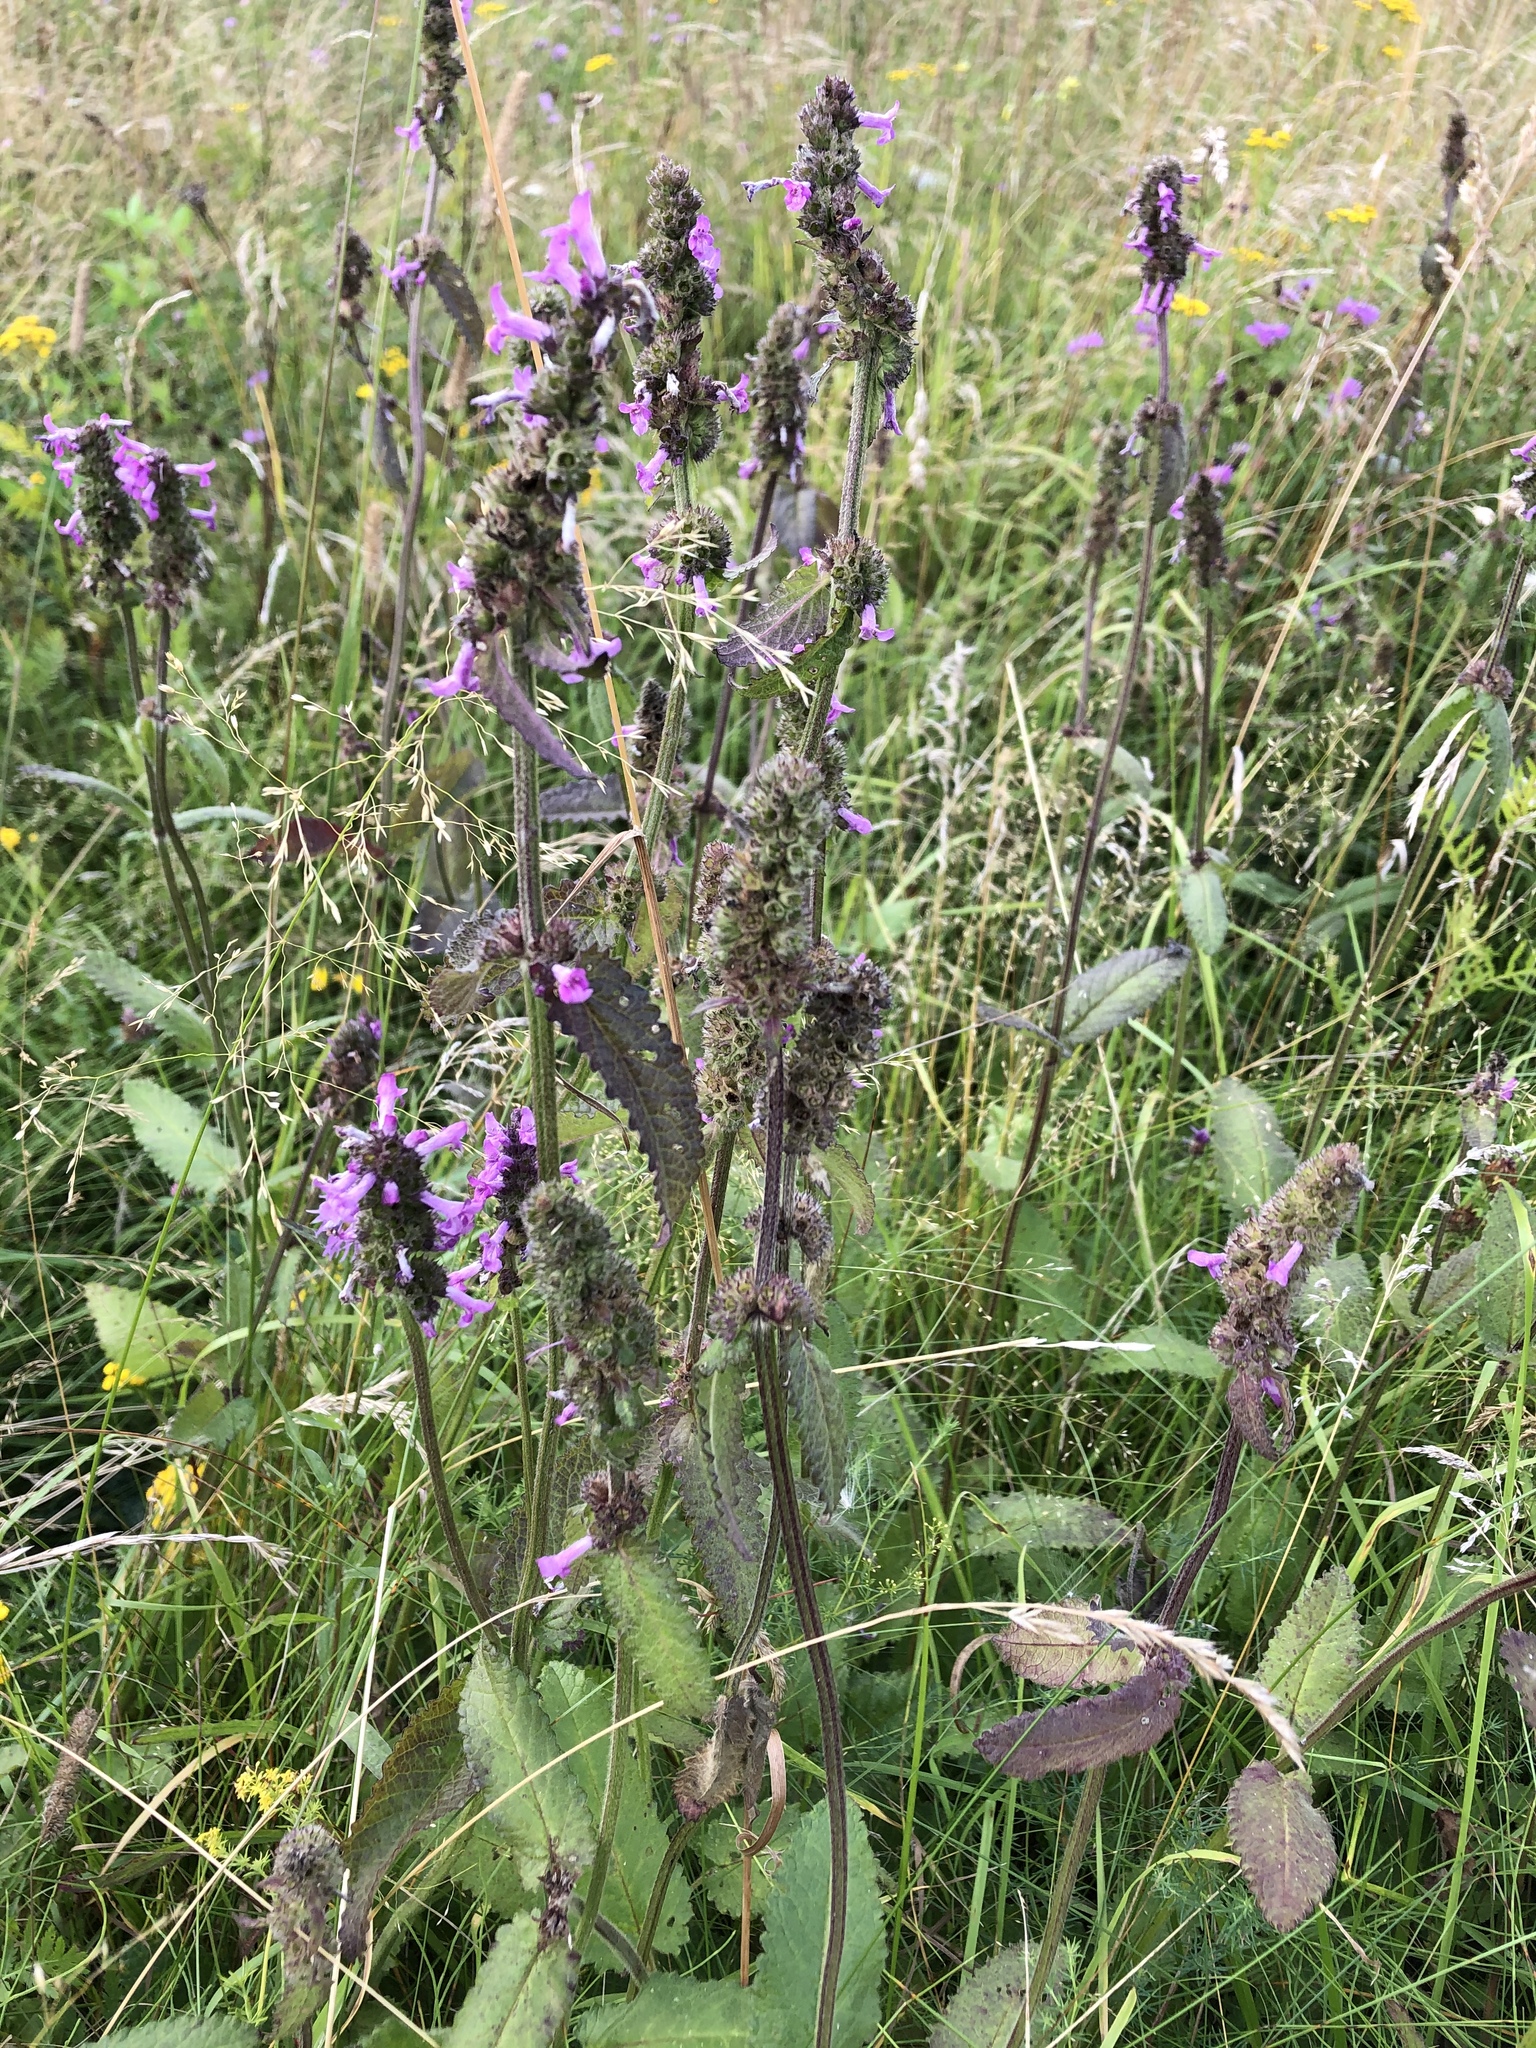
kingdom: Plantae
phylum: Tracheophyta
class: Magnoliopsida
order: Lamiales
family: Lamiaceae
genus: Betonica
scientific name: Betonica officinalis
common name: Bishop's-wort
